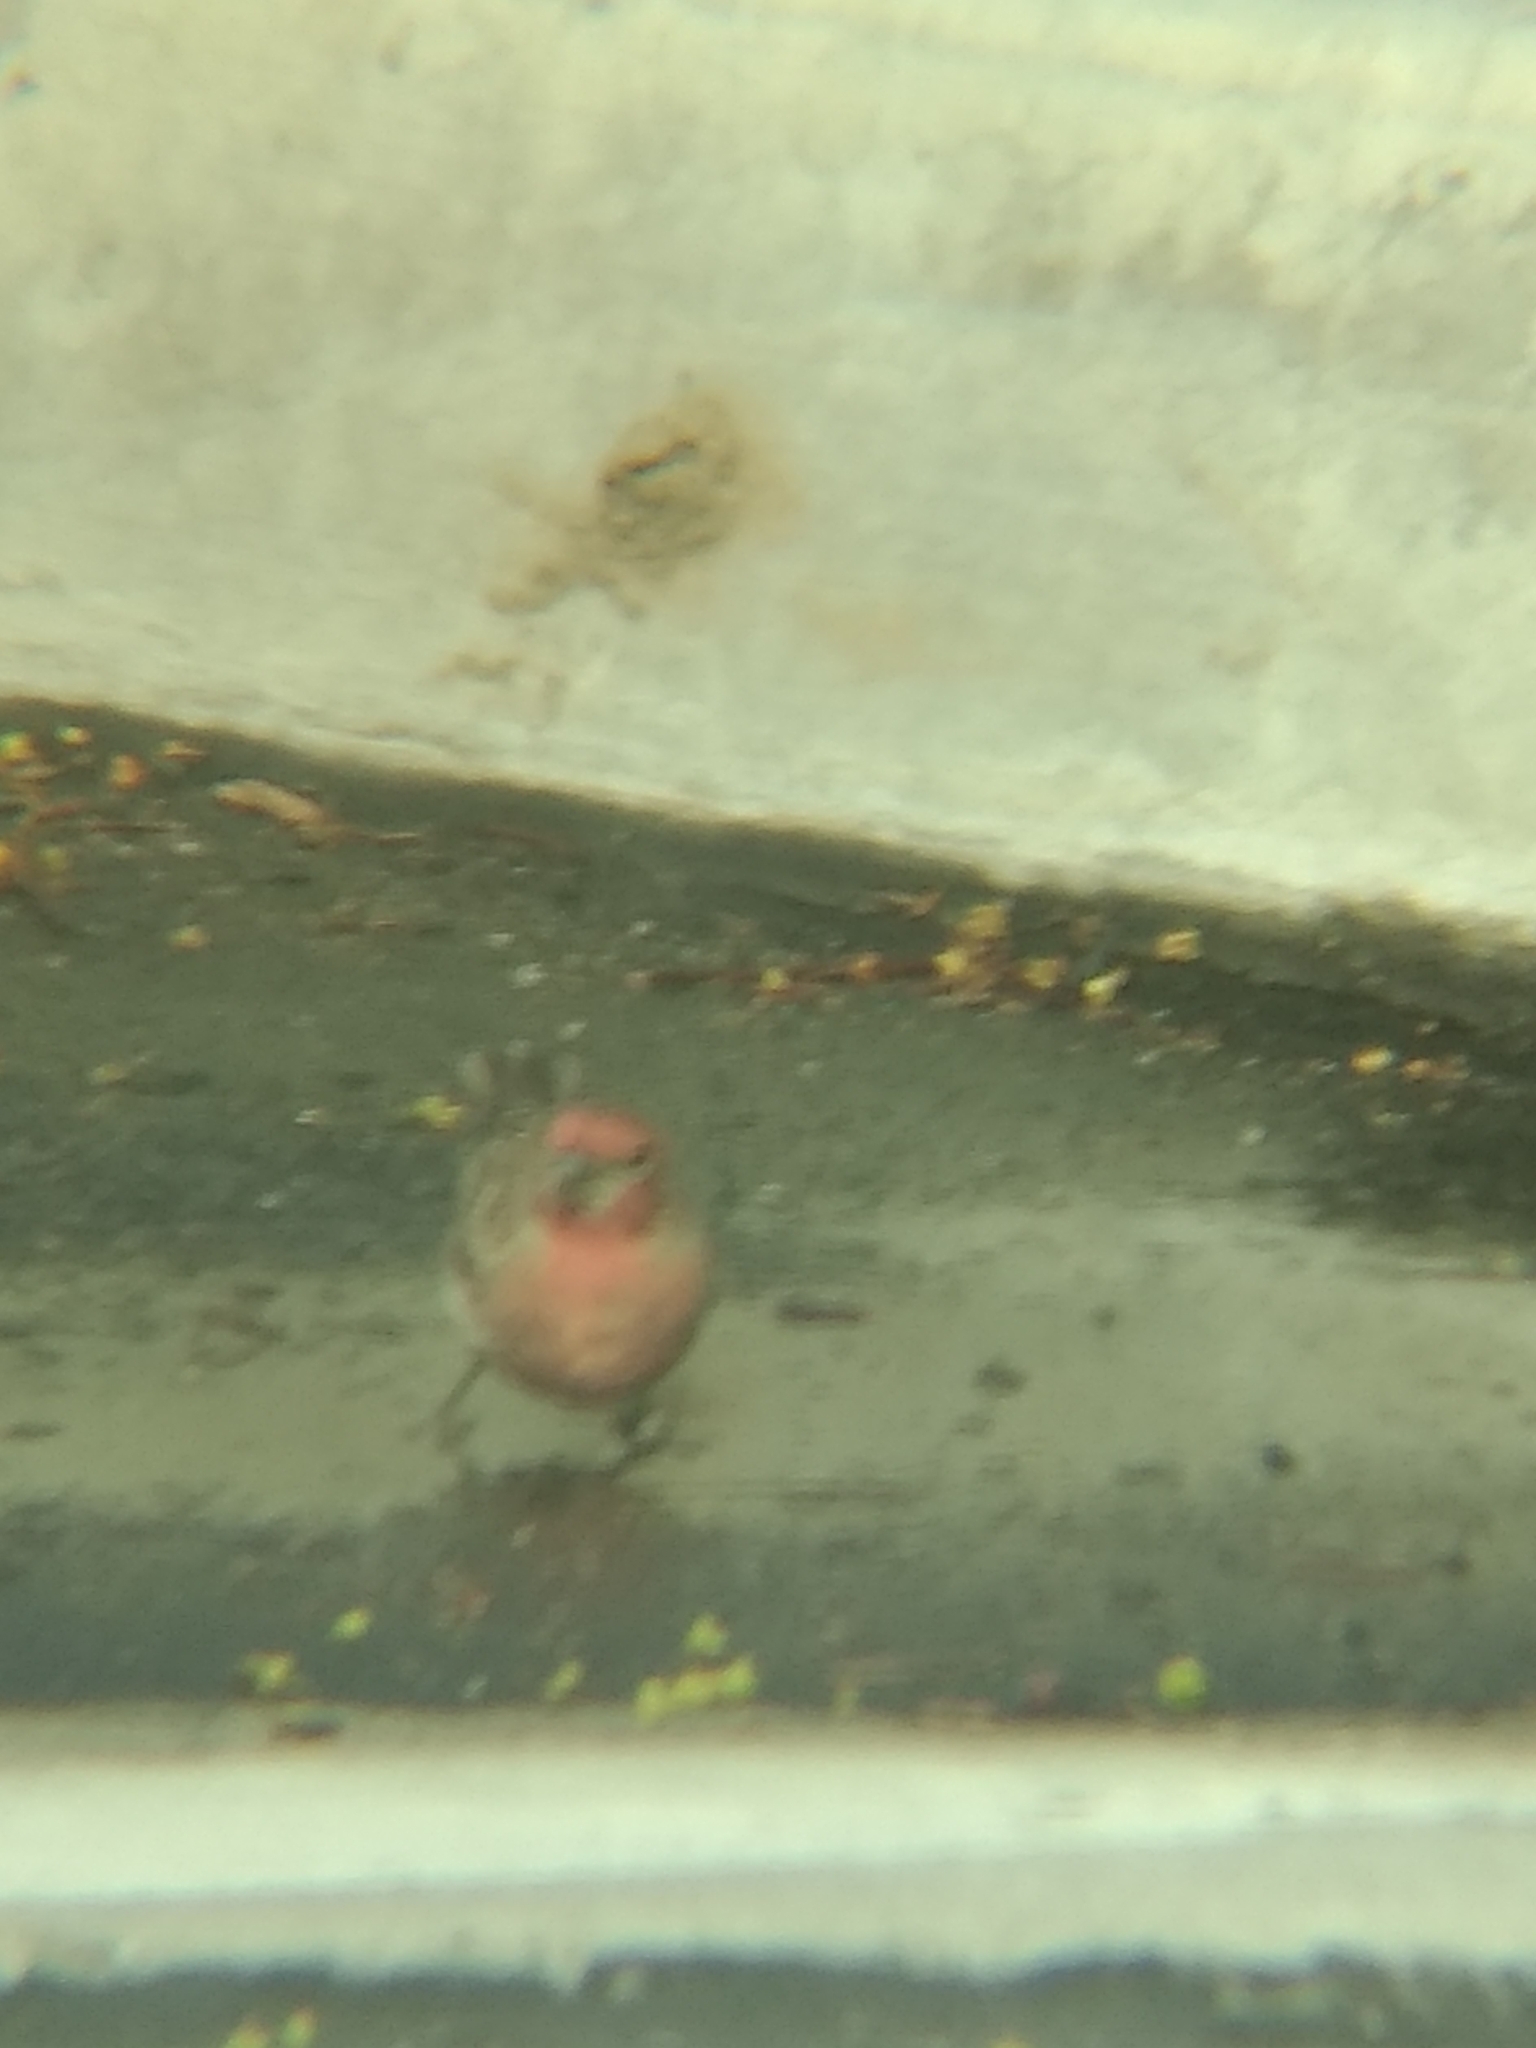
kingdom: Animalia
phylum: Chordata
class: Aves
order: Passeriformes
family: Fringillidae
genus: Haemorhous
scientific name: Haemorhous mexicanus
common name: House finch
